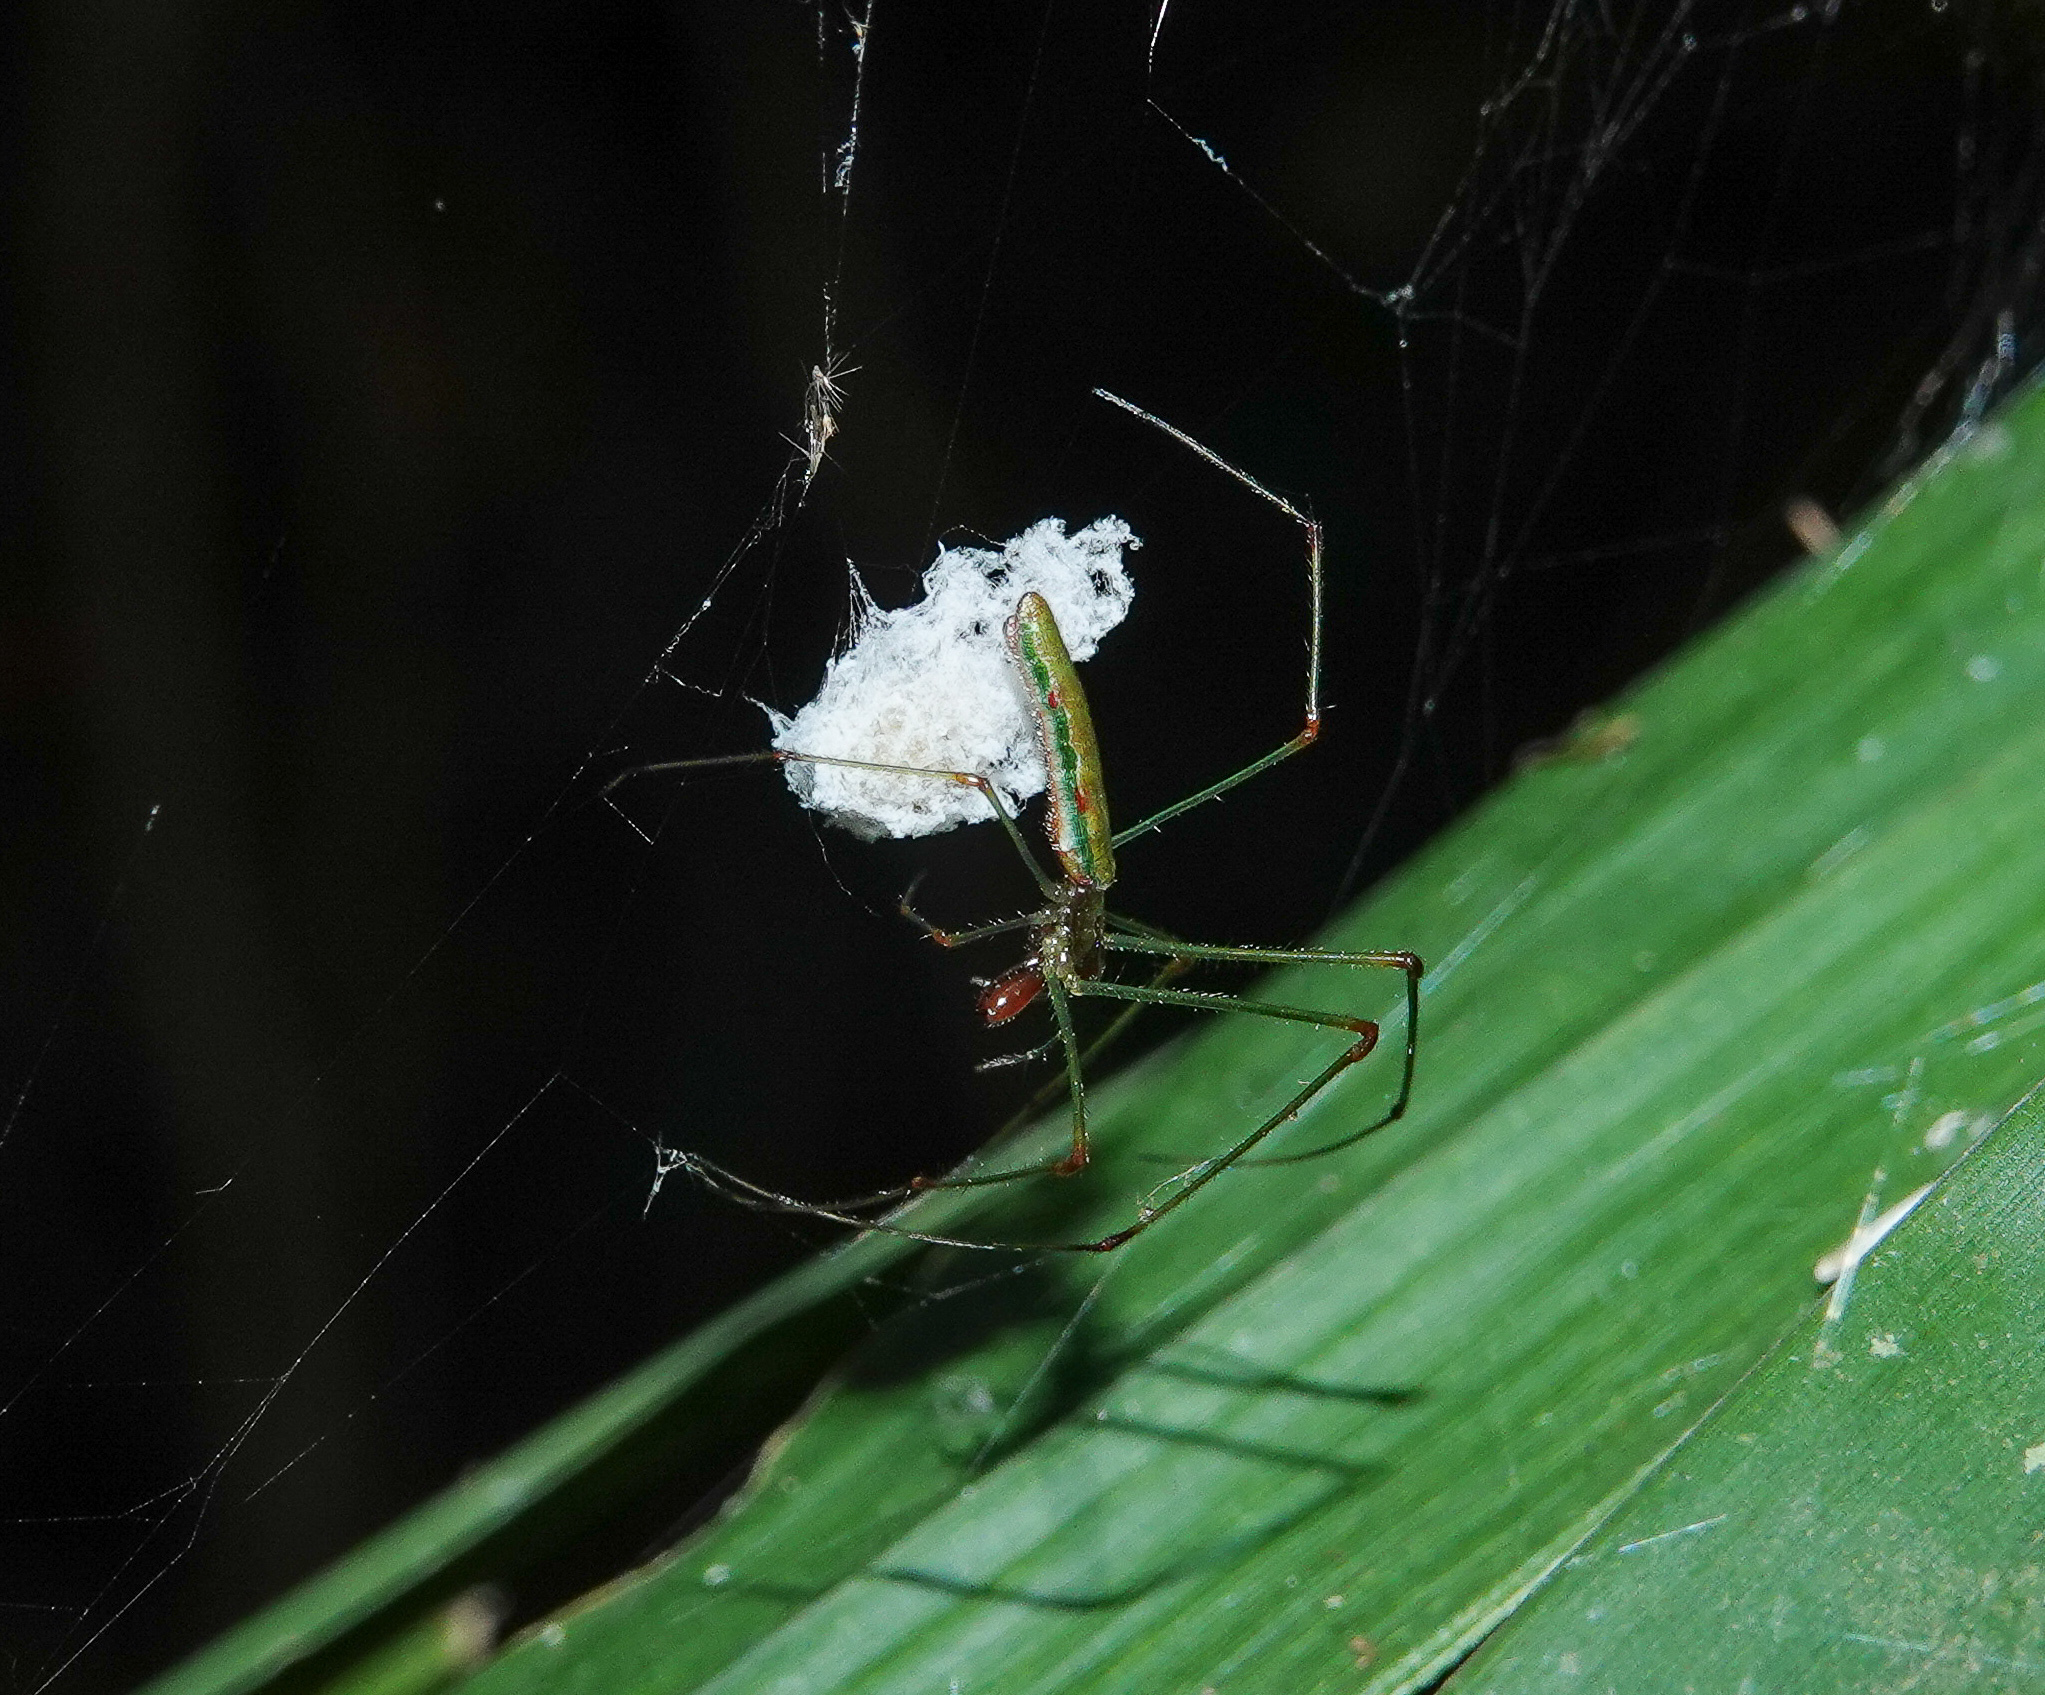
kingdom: Animalia
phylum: Arthropoda
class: Arachnida
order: Araneae
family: Tetragnathidae
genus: Tetragnatha
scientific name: Tetragnatha hasselti
